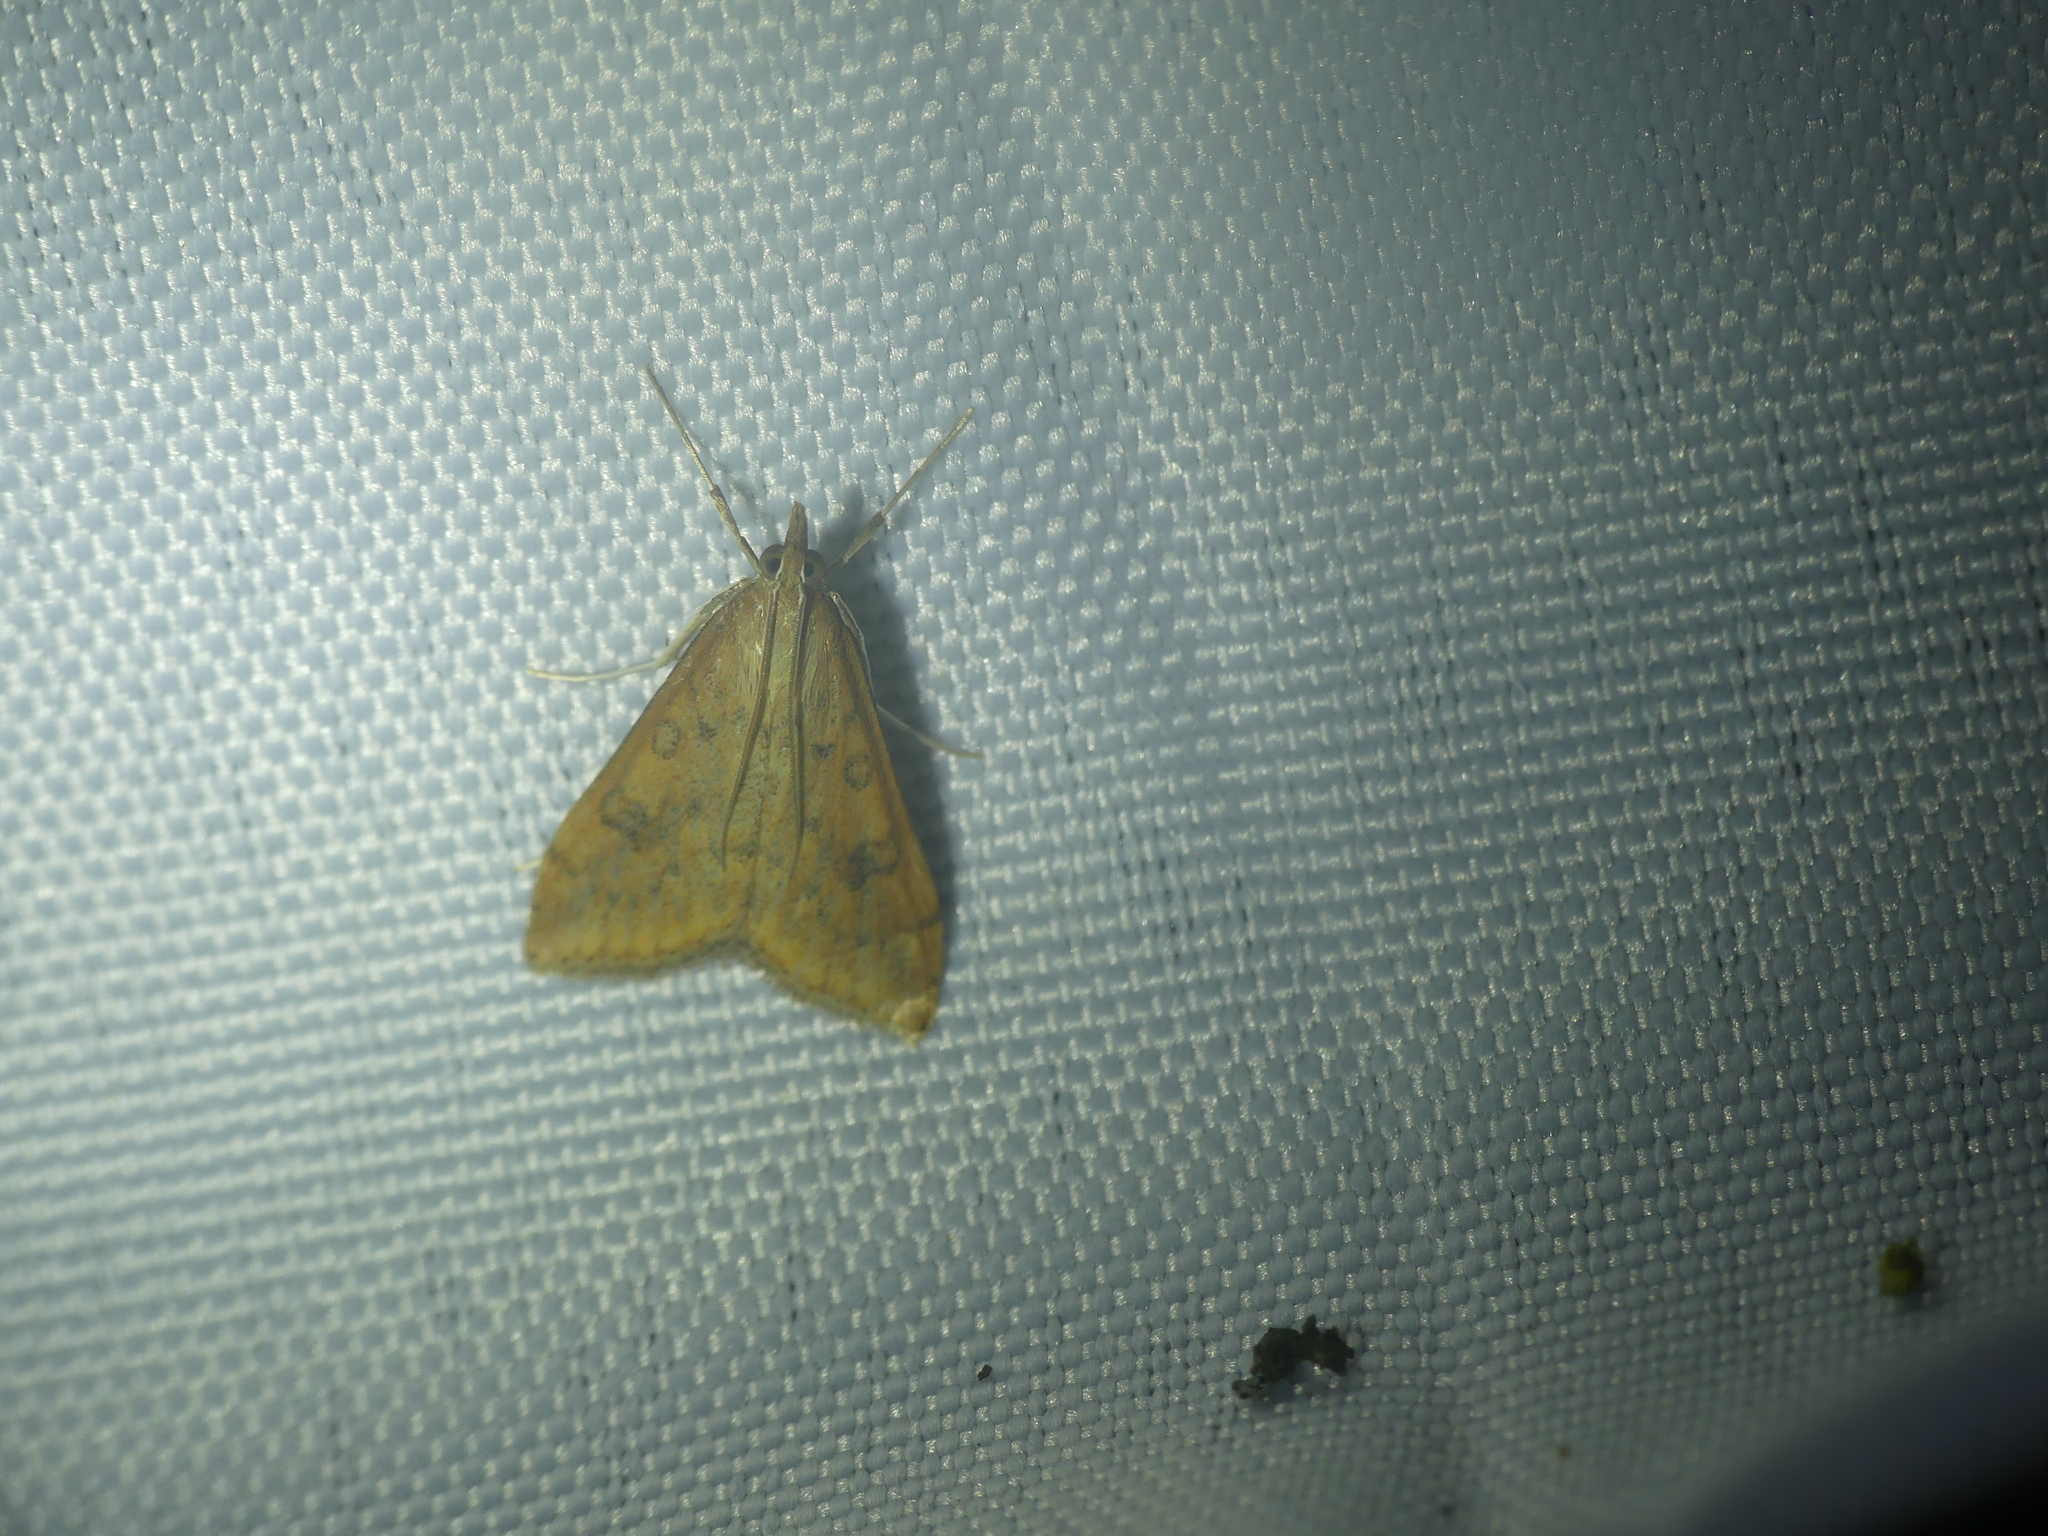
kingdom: Animalia
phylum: Arthropoda
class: Insecta
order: Lepidoptera
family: Crambidae
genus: Udea
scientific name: Udea ferrugalis
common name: Rusty dot
